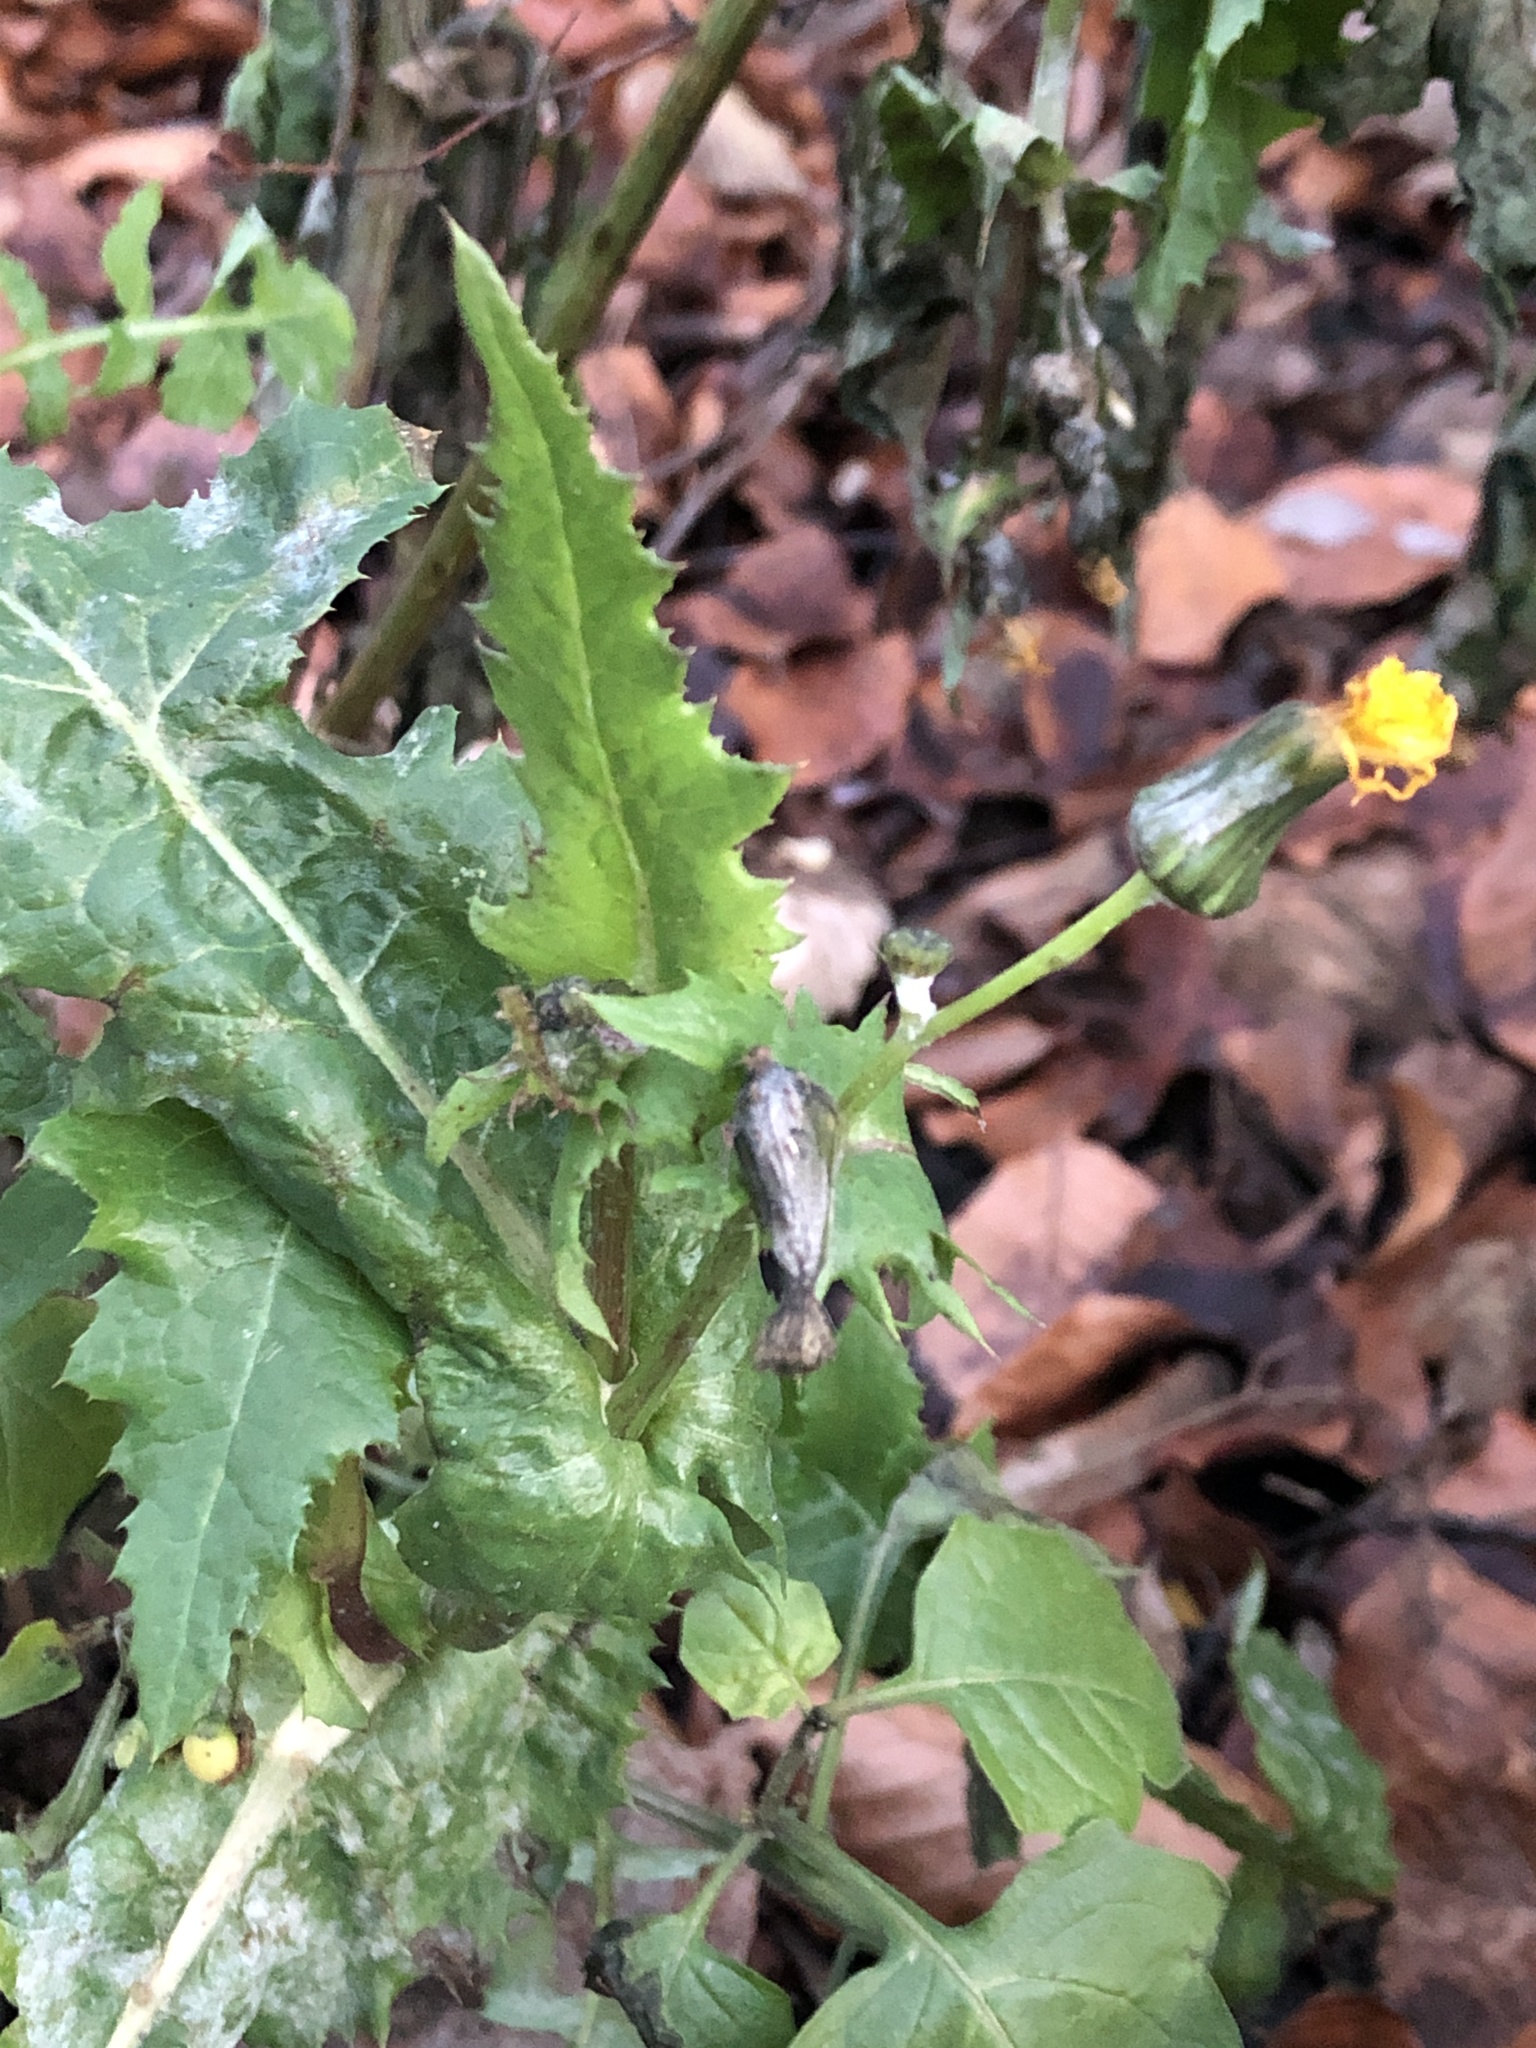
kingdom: Plantae
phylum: Tracheophyta
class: Magnoliopsida
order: Asterales
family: Asteraceae
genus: Sonchus
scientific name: Sonchus oleraceus
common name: Common sowthistle
